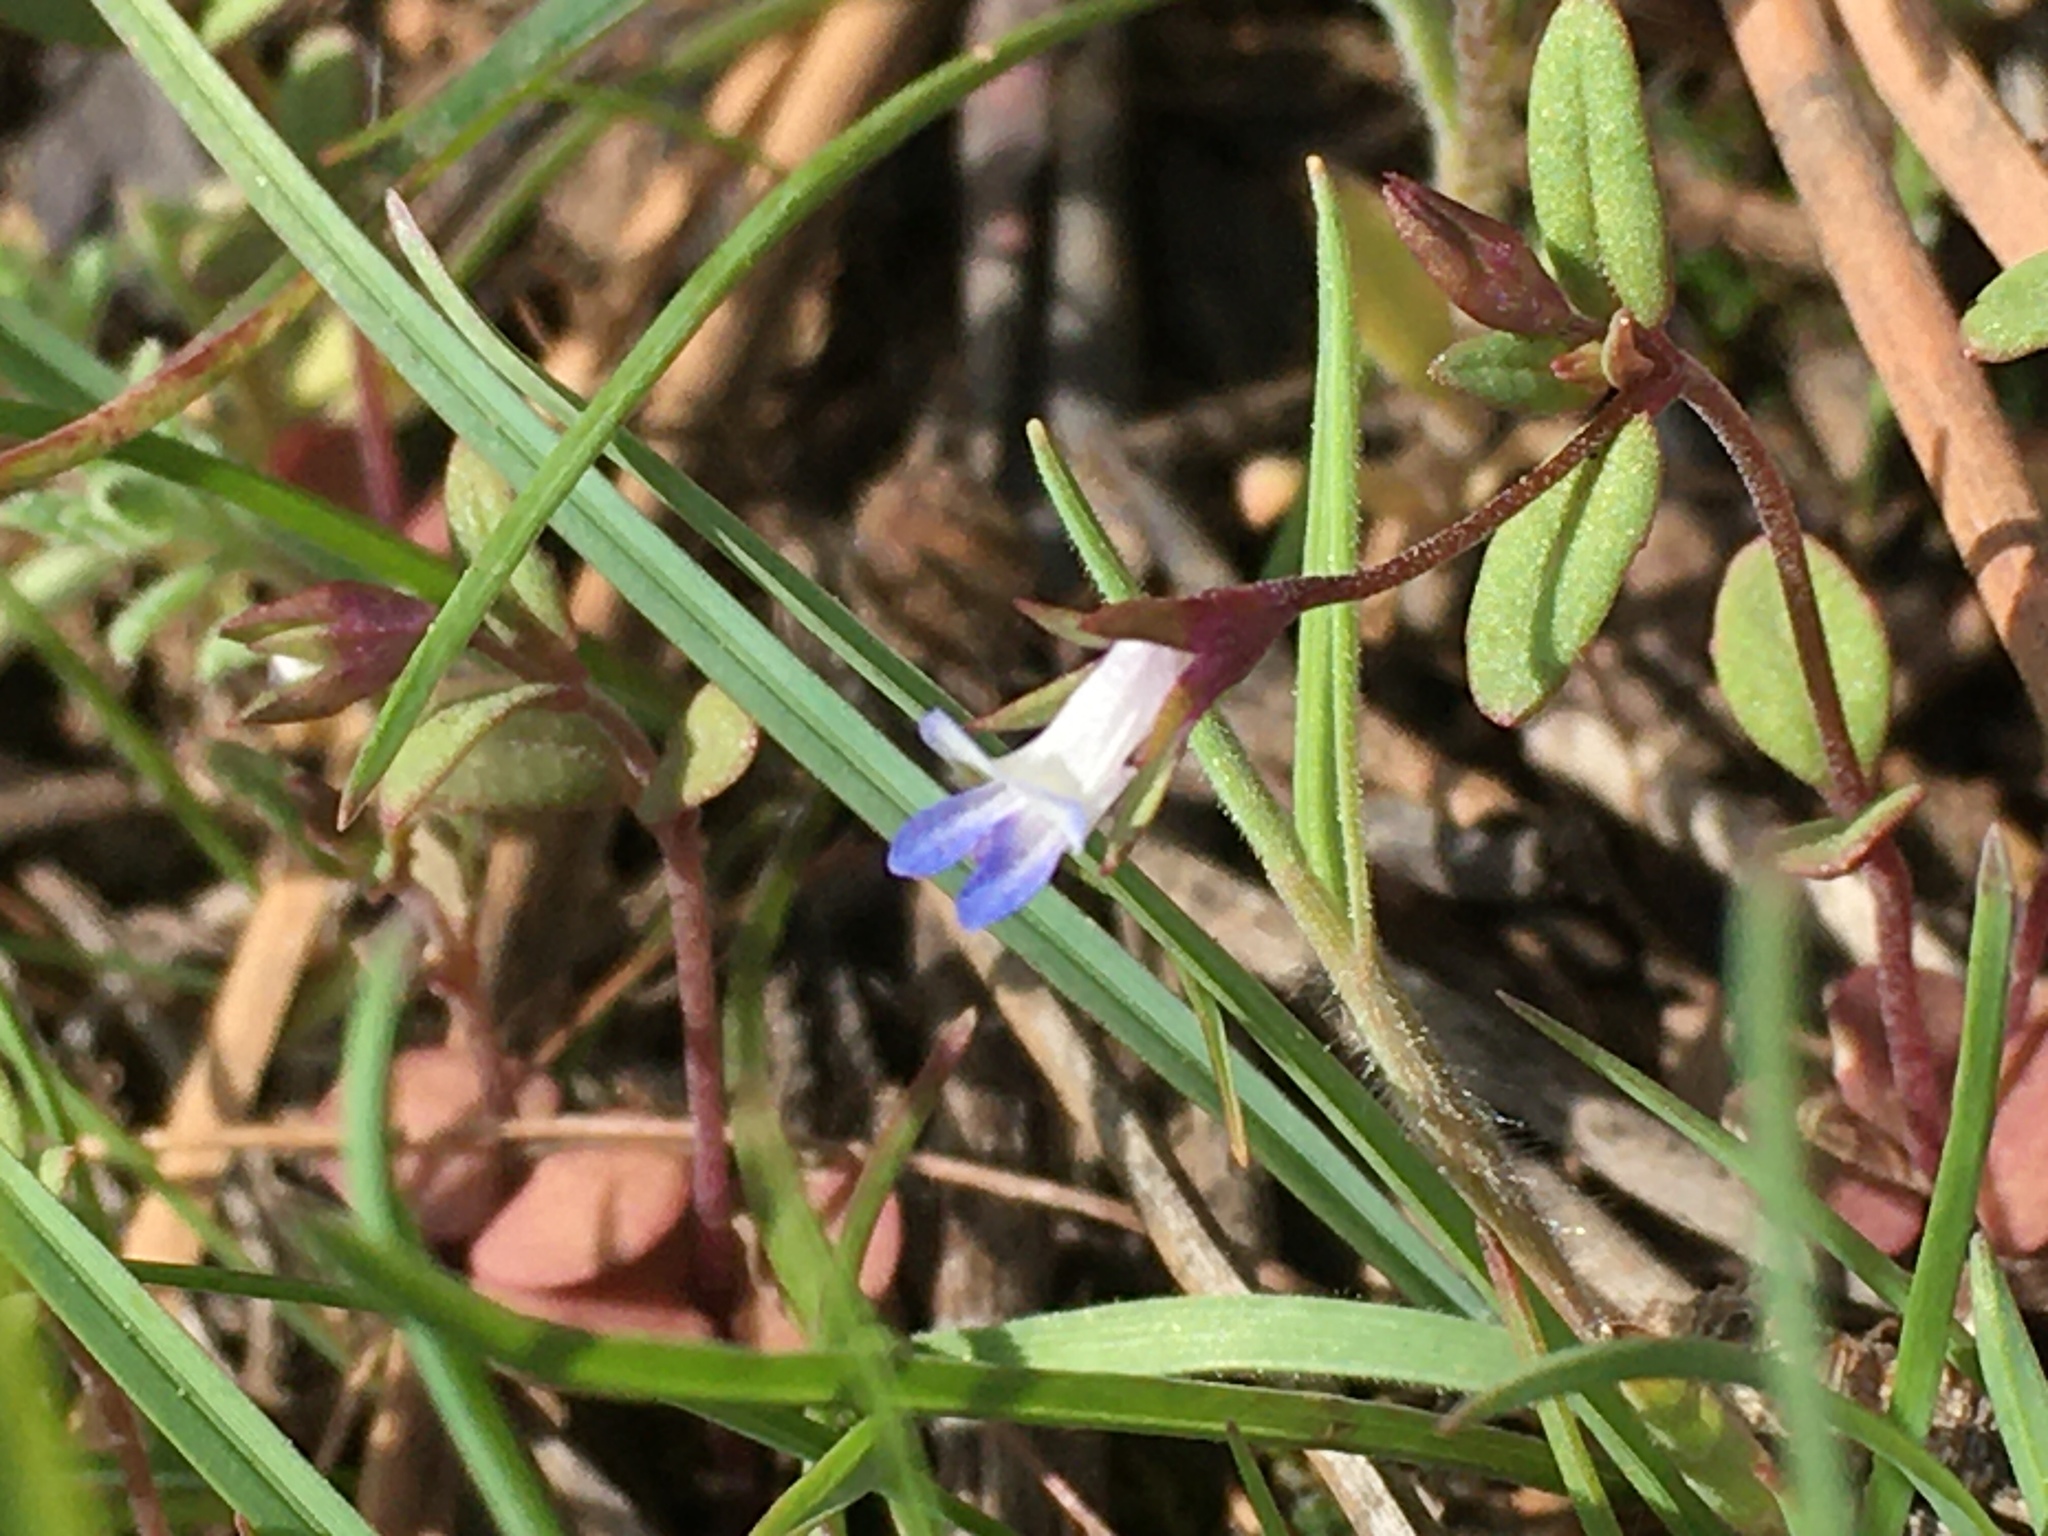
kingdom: Plantae
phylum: Tracheophyta
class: Magnoliopsida
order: Lamiales
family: Plantaginaceae
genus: Collinsia
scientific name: Collinsia parviflora
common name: Blue-lips
